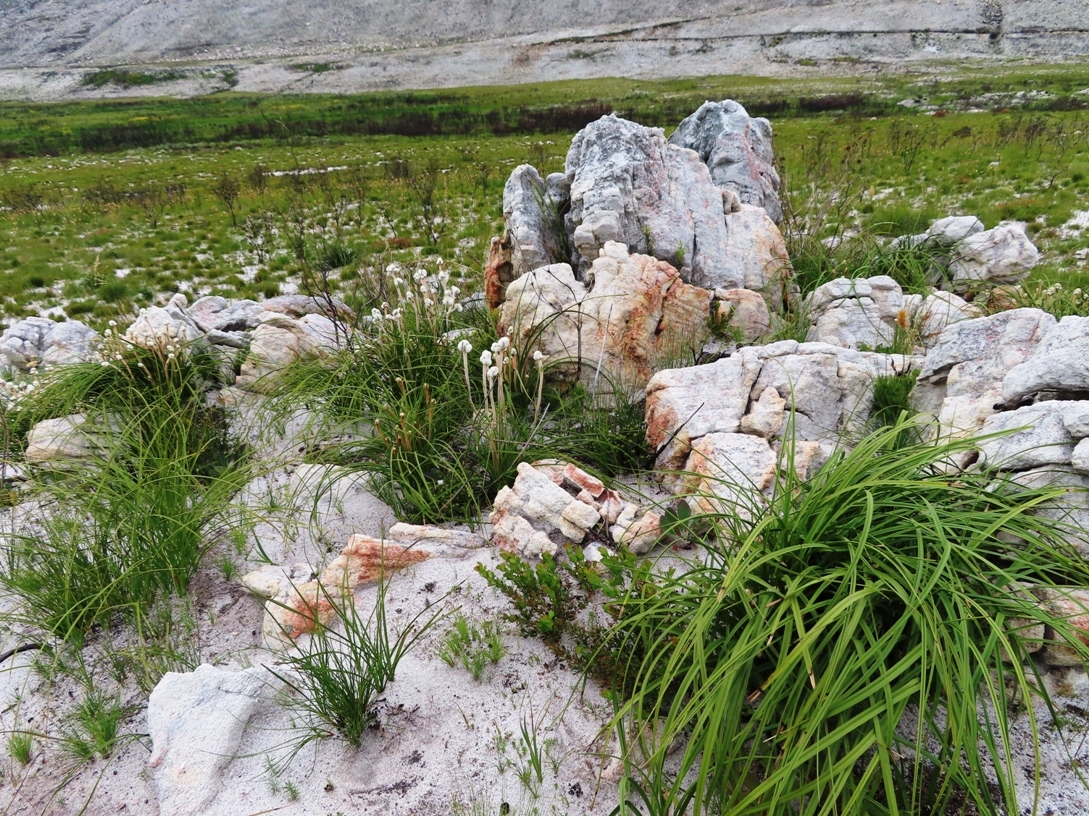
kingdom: Plantae
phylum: Tracheophyta
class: Liliopsida
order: Asparagales
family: Lanariaceae
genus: Lanaria
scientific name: Lanaria lanata
